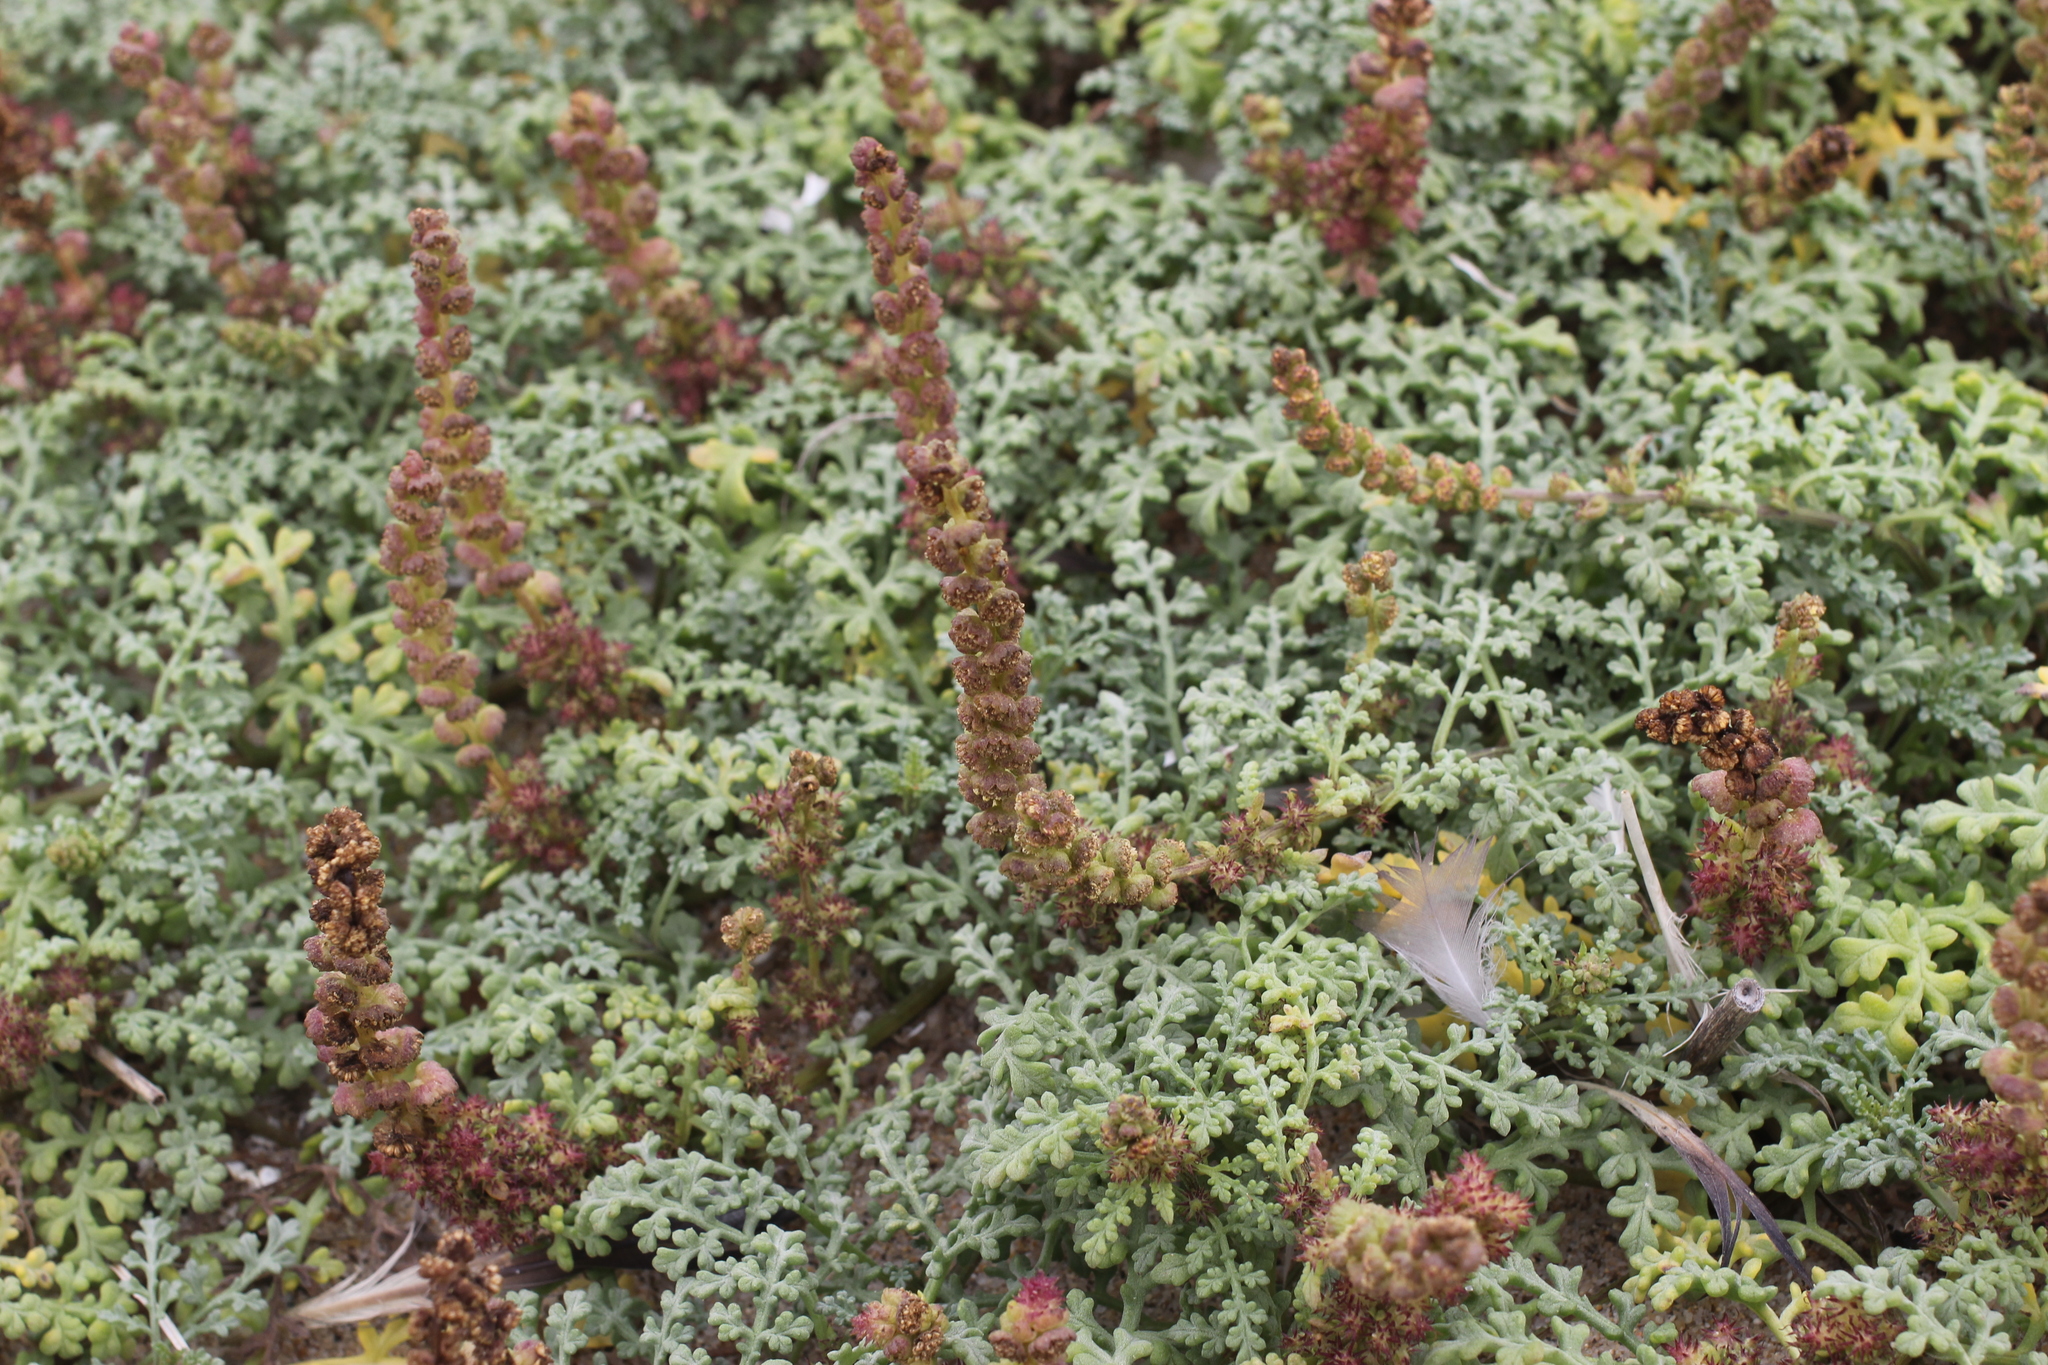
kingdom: Plantae
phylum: Tracheophyta
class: Magnoliopsida
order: Asterales
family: Asteraceae
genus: Ambrosia
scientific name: Ambrosia chamissonis
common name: Beachbur
